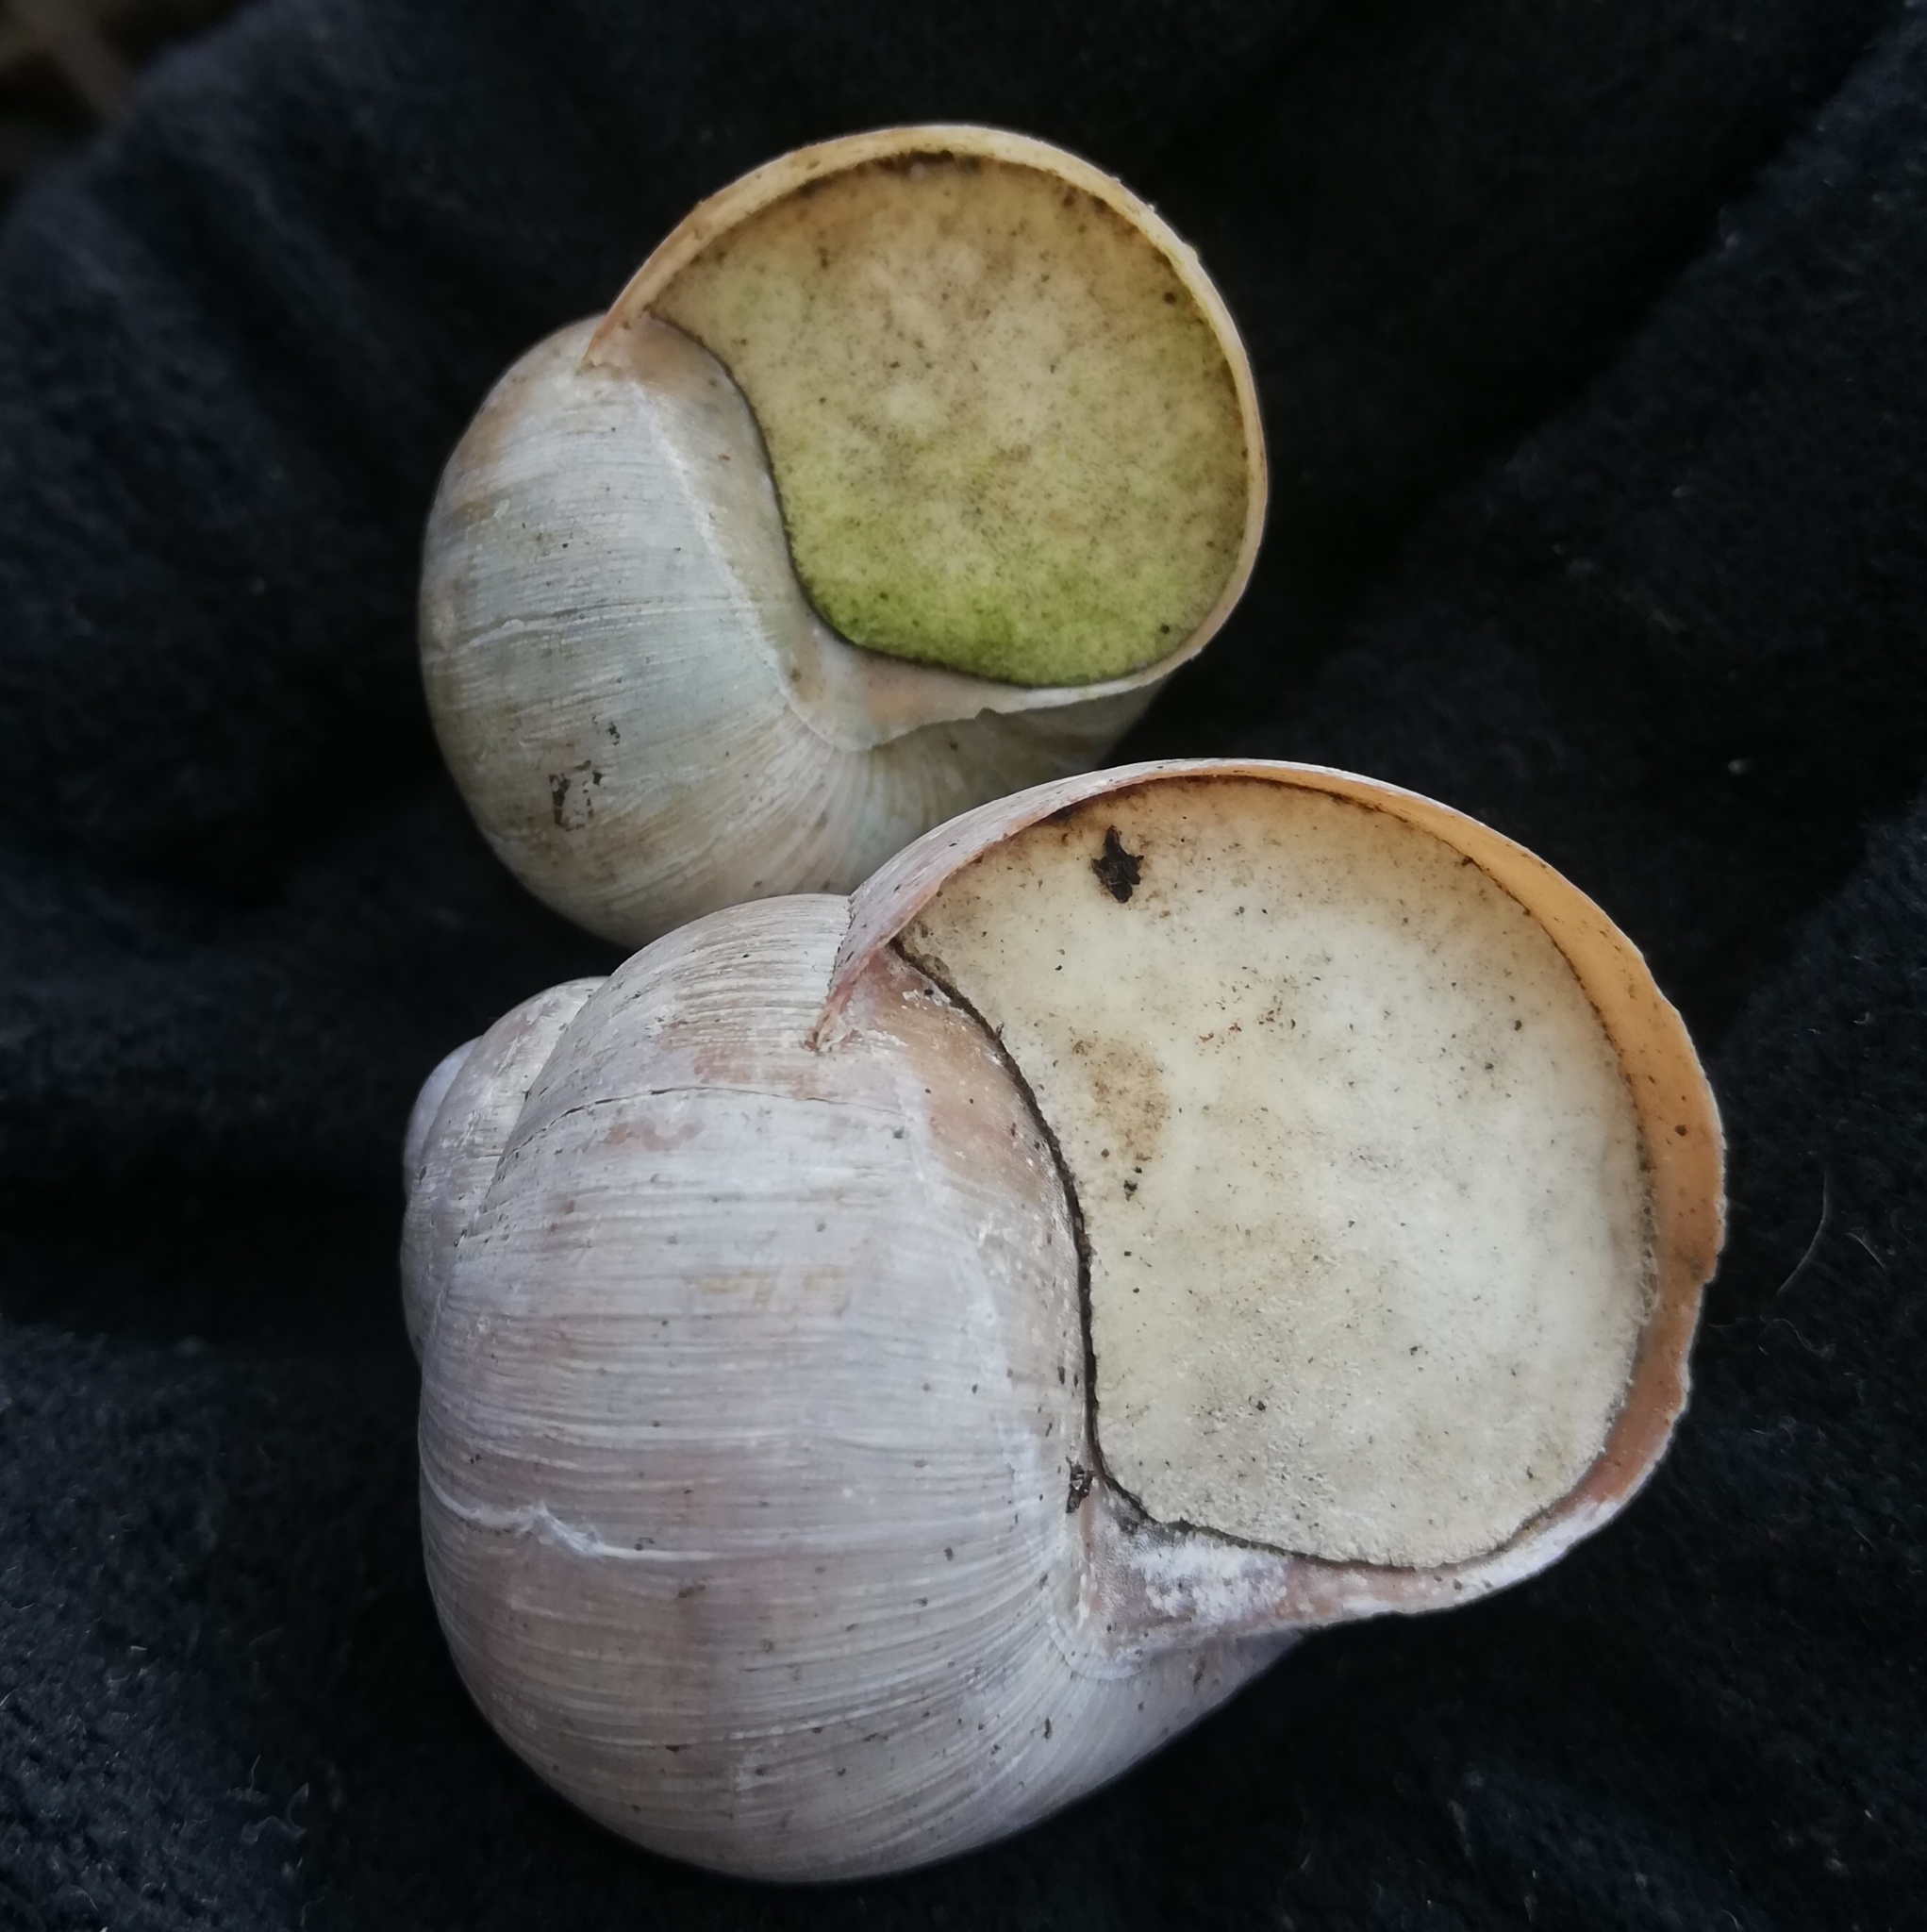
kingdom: Animalia
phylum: Mollusca
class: Gastropoda
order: Stylommatophora
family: Helicidae
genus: Helix
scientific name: Helix pomatia
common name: Roman snail
